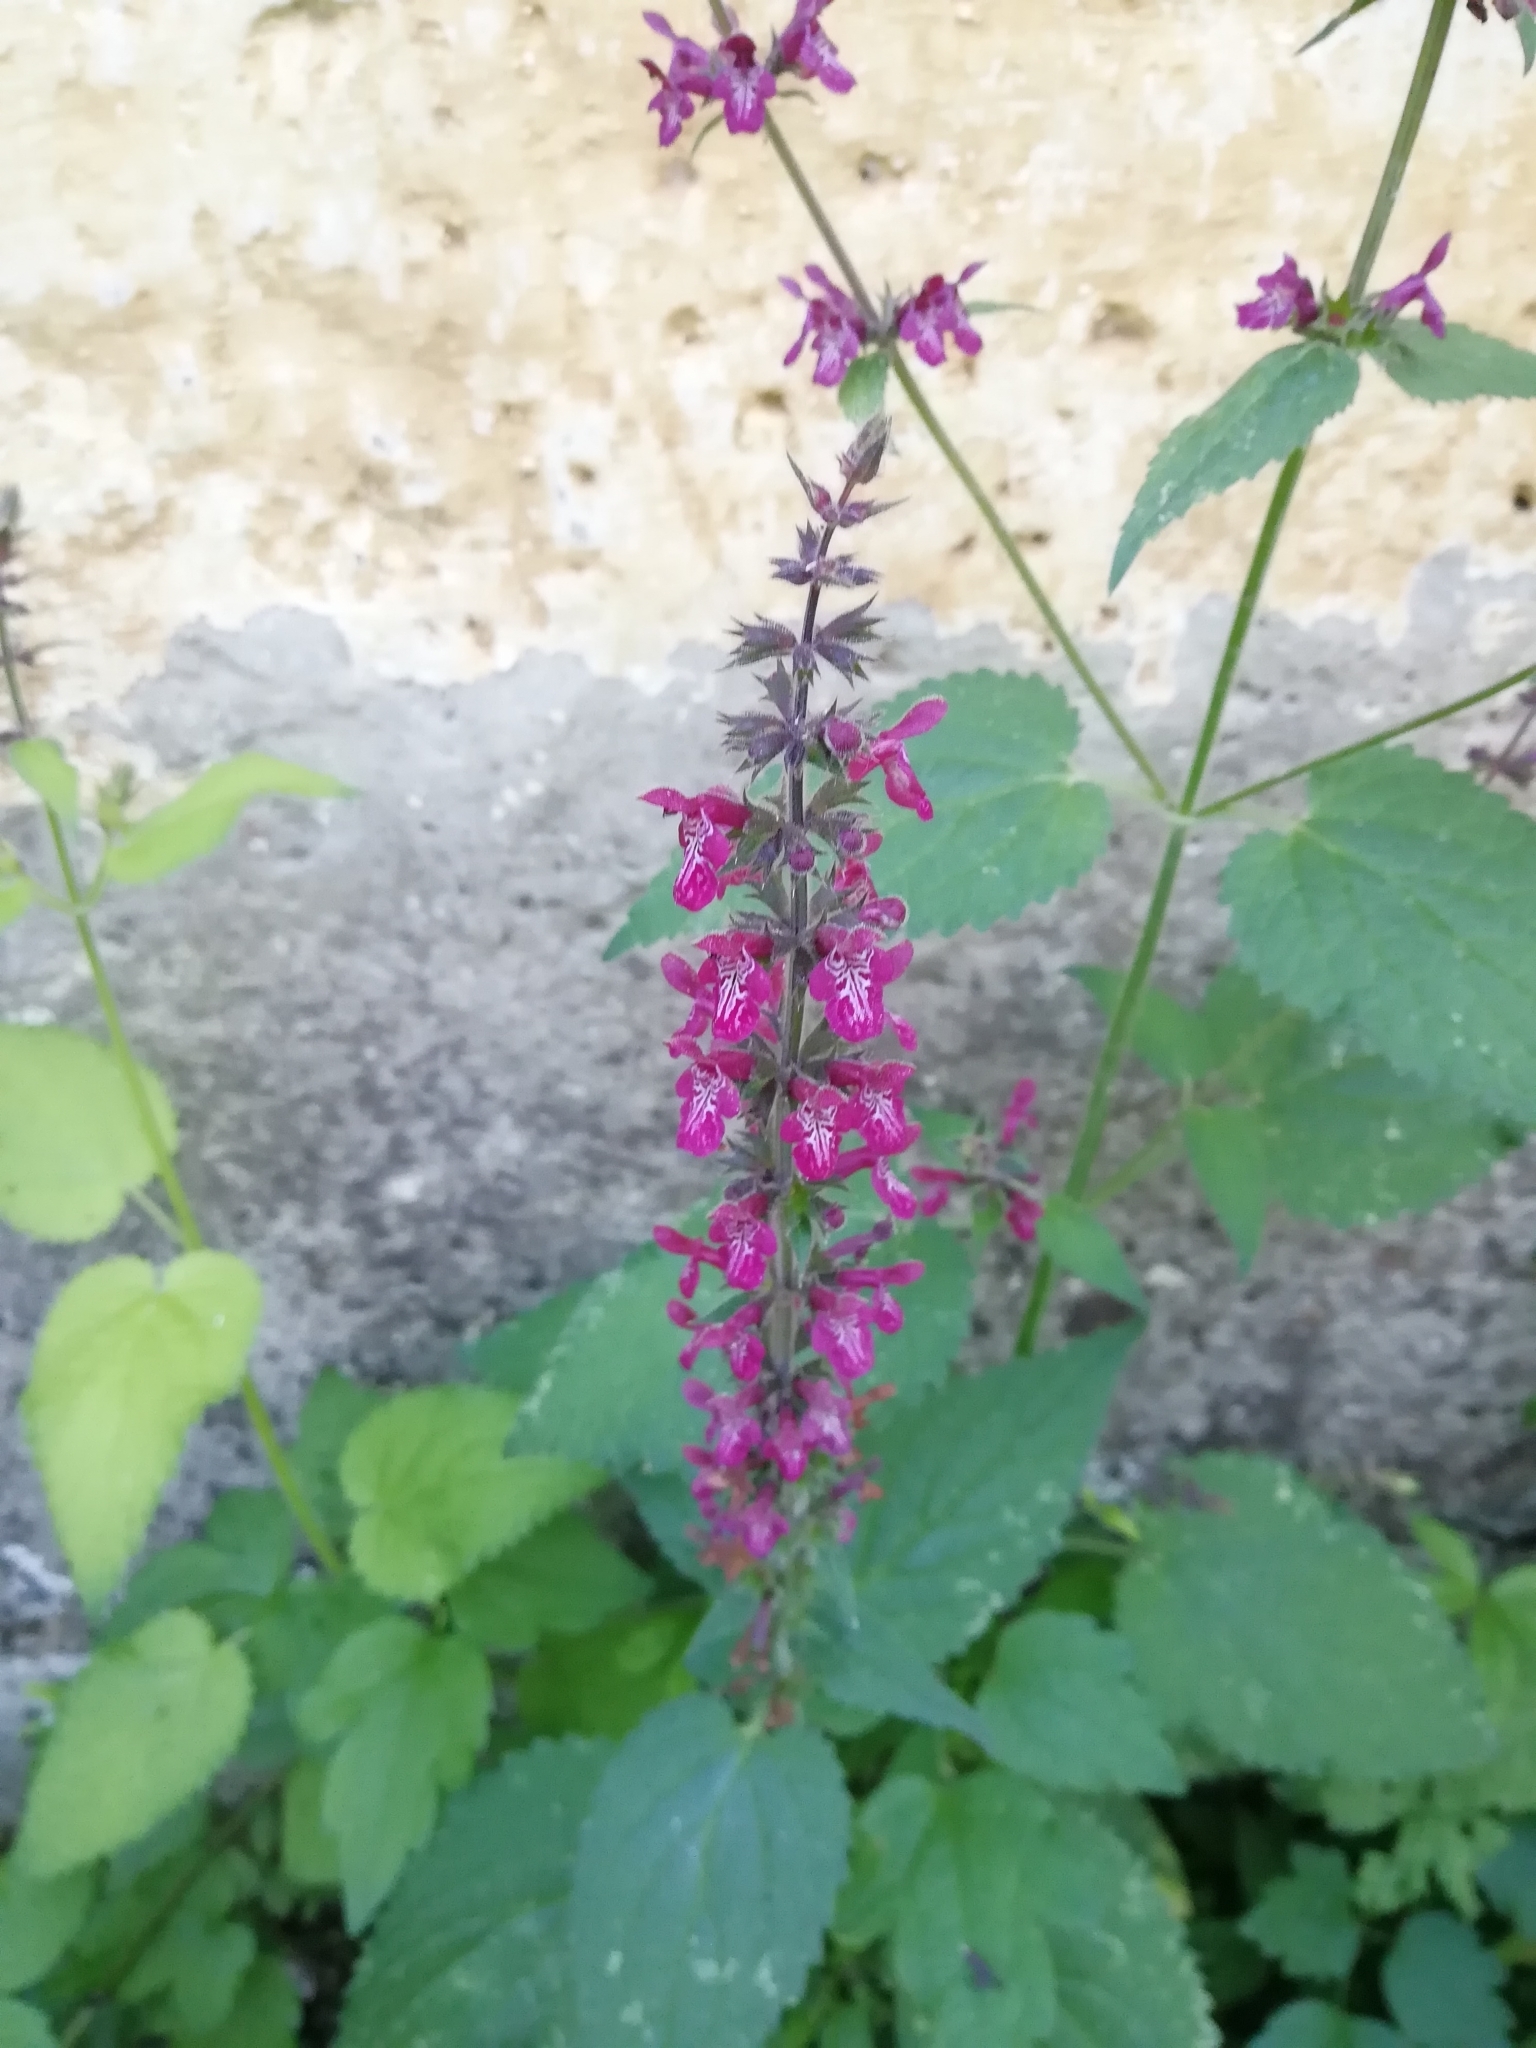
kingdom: Plantae
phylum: Tracheophyta
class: Magnoliopsida
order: Lamiales
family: Lamiaceae
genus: Stachys
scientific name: Stachys sylvatica
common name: Hedge woundwort
